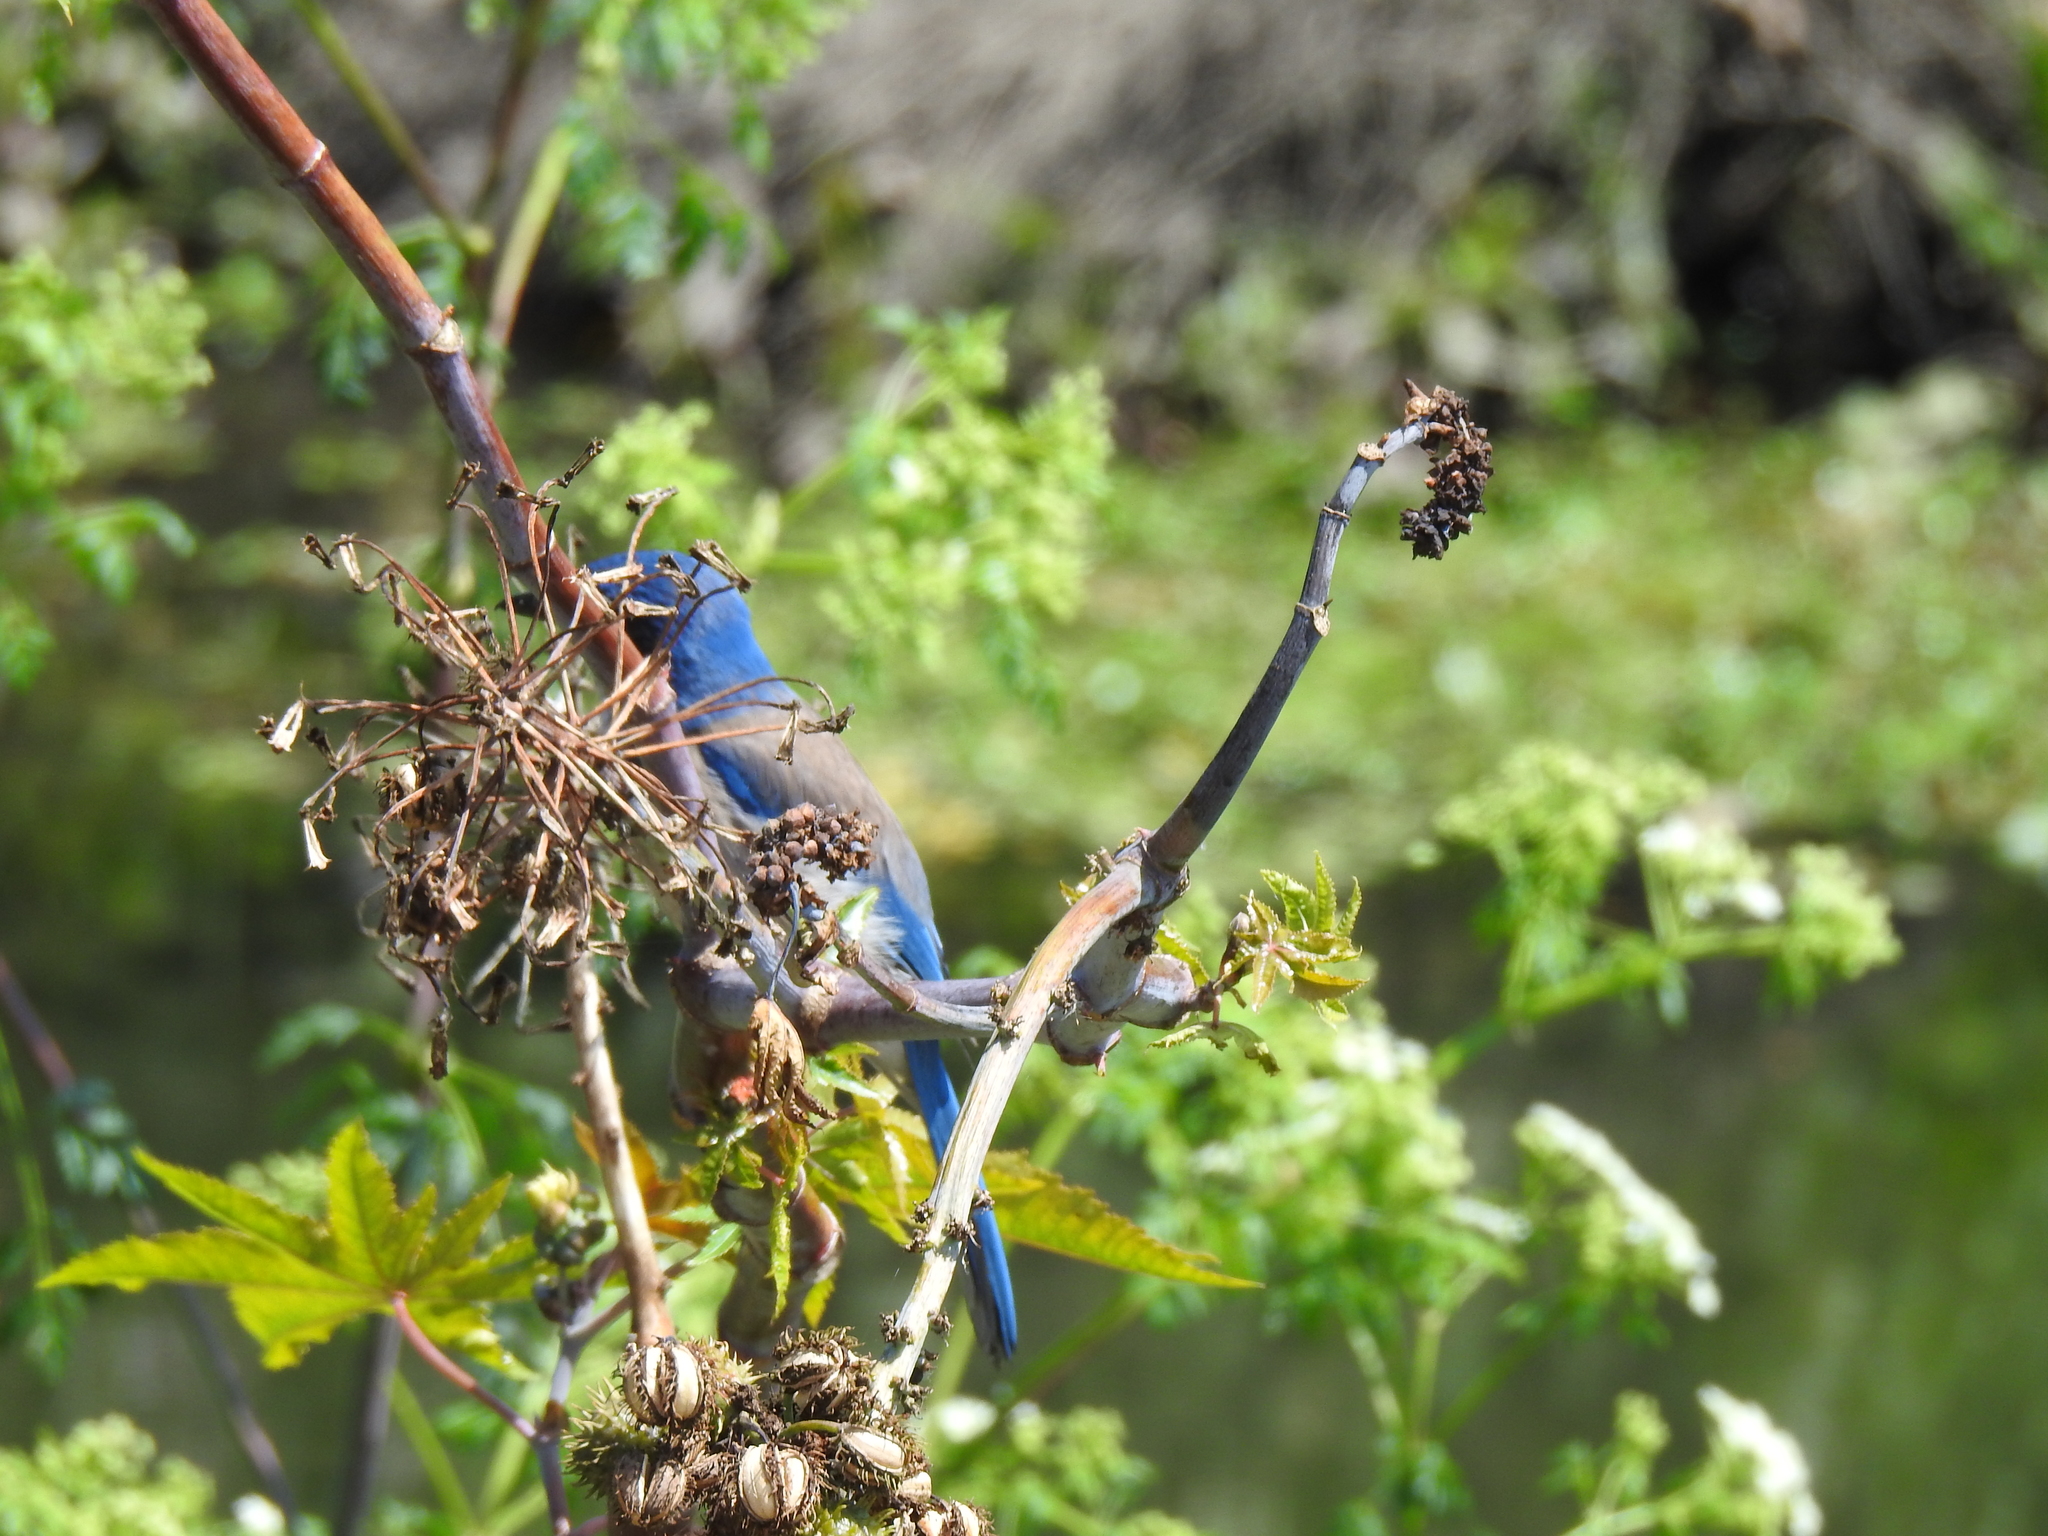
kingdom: Animalia
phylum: Chordata
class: Aves
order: Passeriformes
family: Corvidae
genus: Aphelocoma
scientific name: Aphelocoma californica
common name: California scrub-jay
